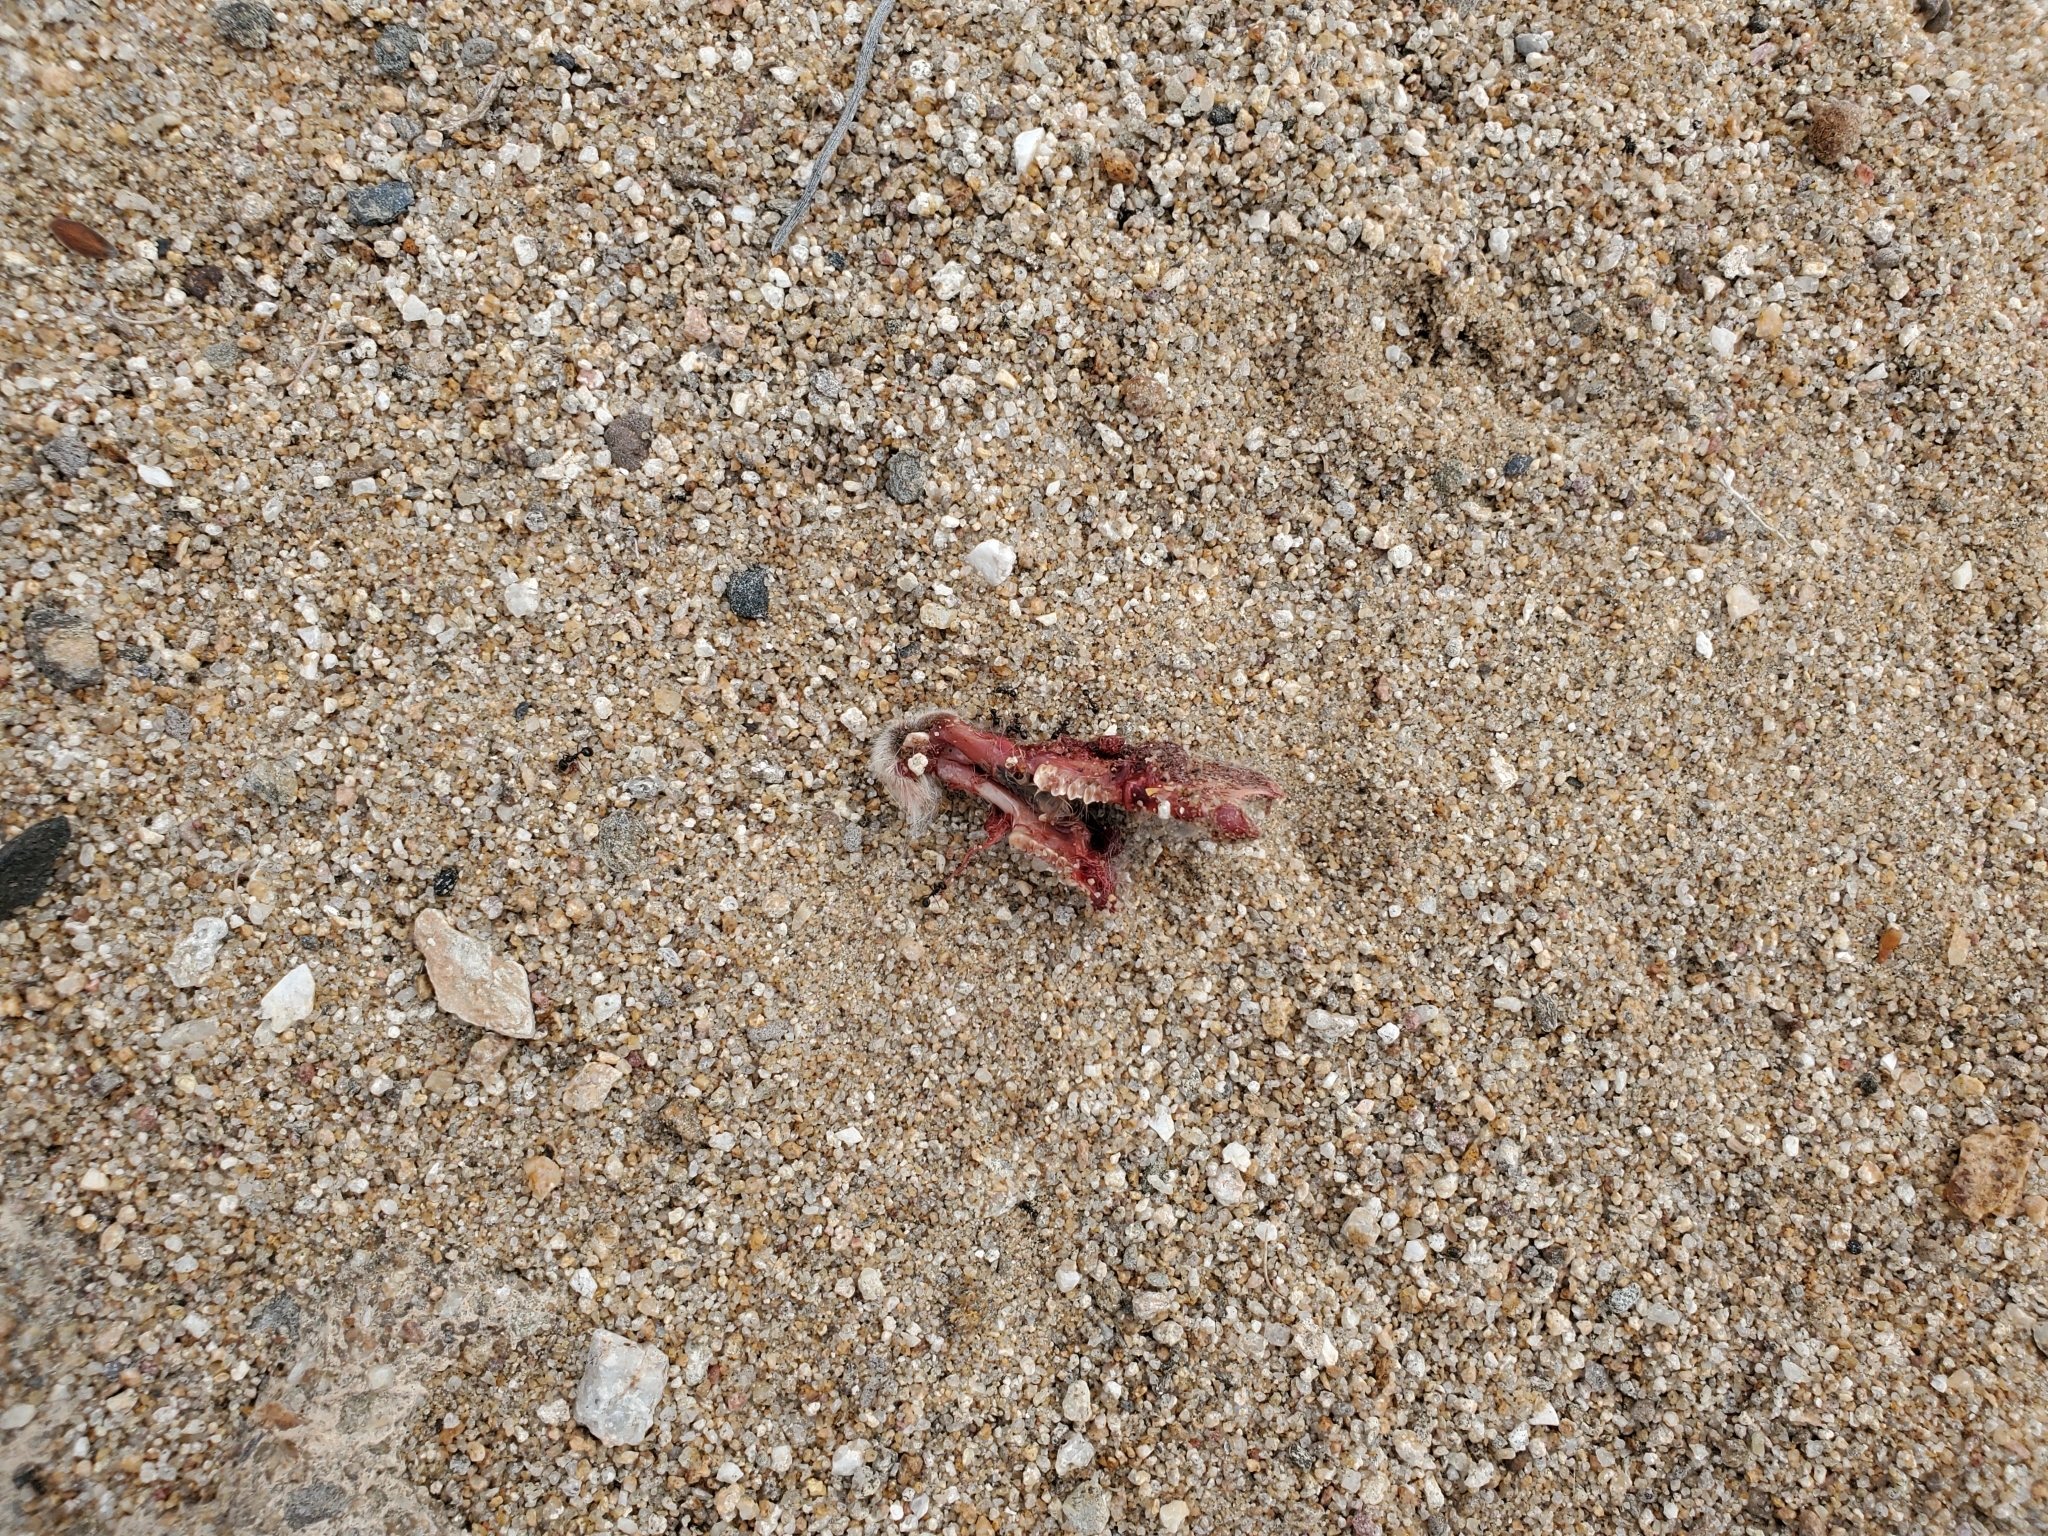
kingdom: Animalia
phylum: Chordata
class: Mammalia
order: Lagomorpha
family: Leporidae
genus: Lepus
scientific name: Lepus californicus
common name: Black-tailed jackrabbit
